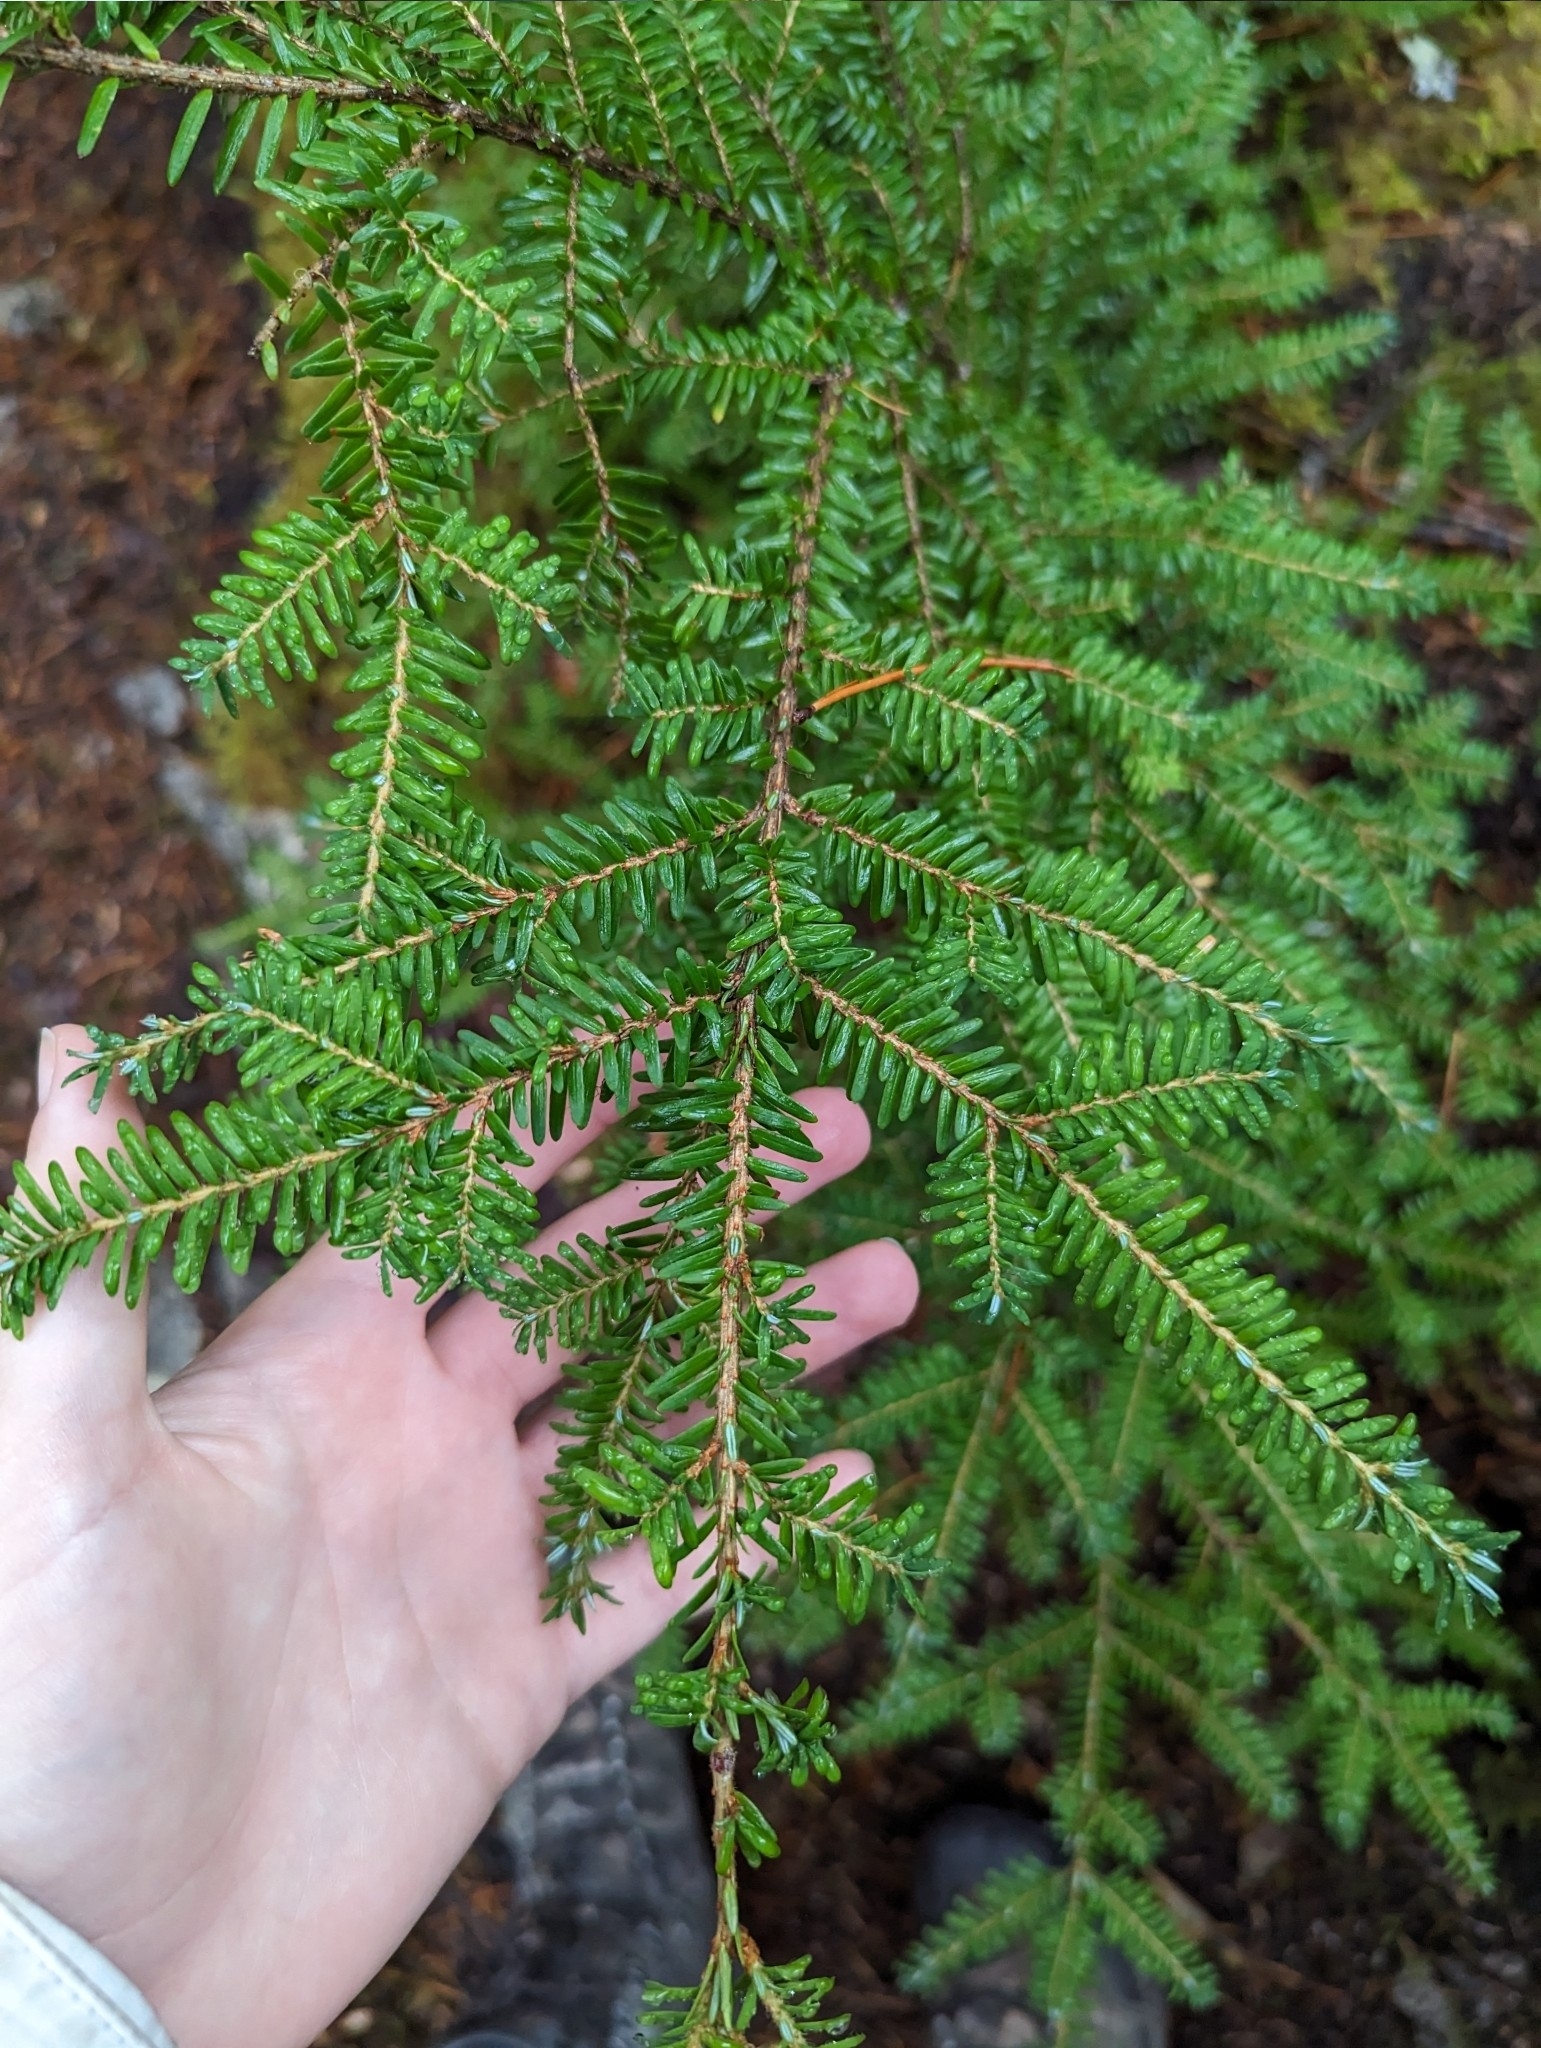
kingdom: Plantae
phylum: Tracheophyta
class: Pinopsida
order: Pinales
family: Pinaceae
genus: Tsuga
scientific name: Tsuga heterophylla
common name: Western hemlock
